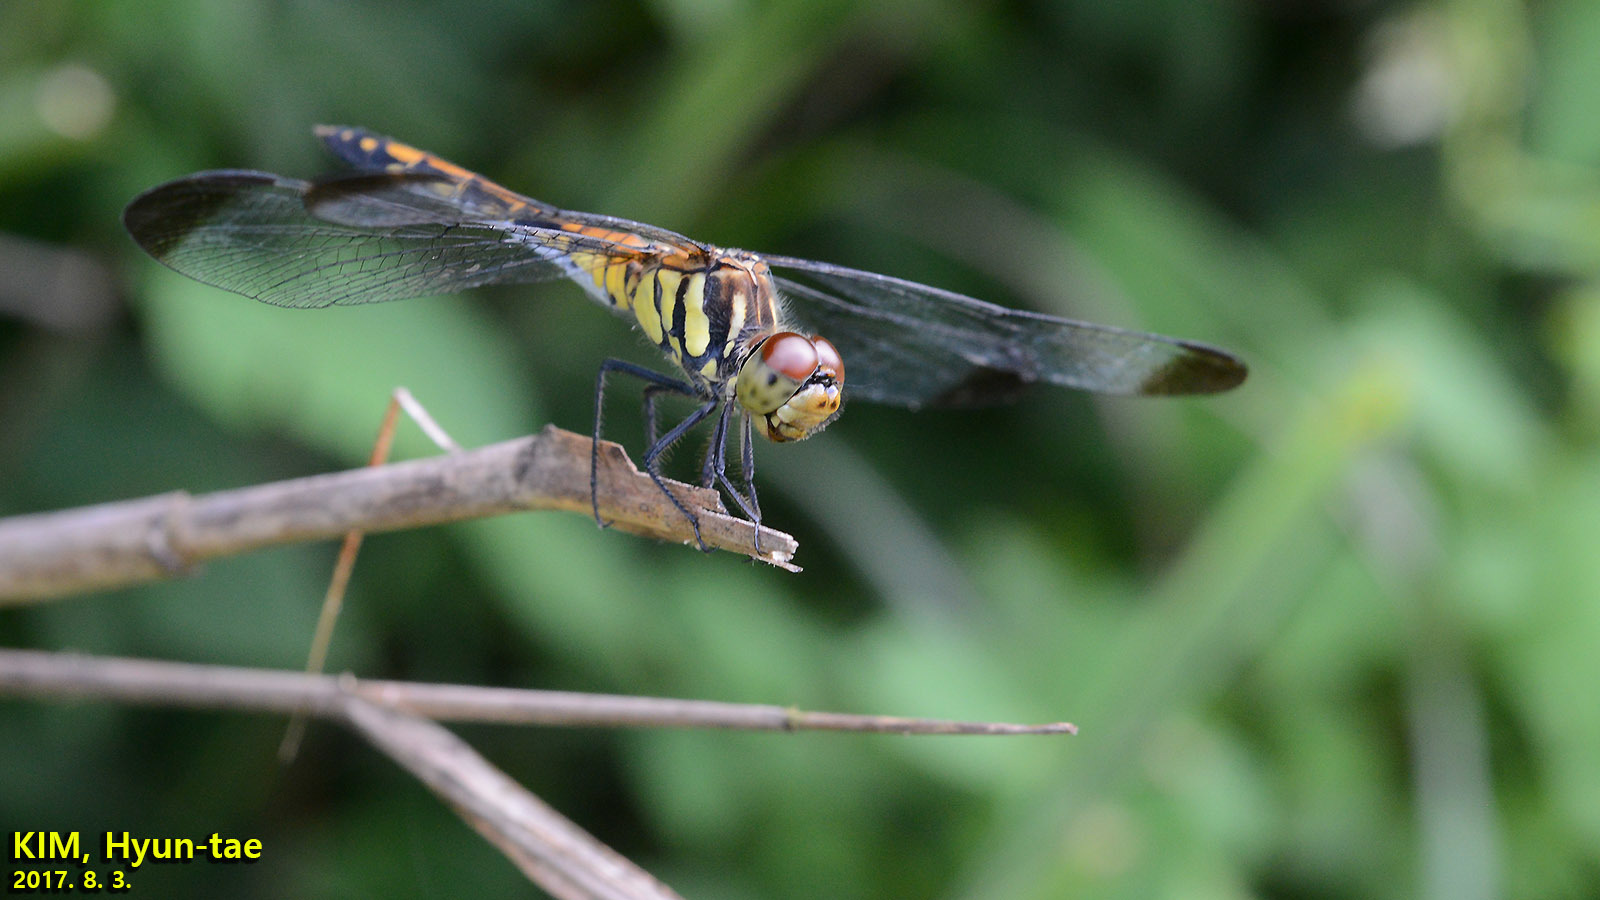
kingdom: Animalia
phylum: Arthropoda
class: Insecta
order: Odonata
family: Libellulidae
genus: Sympetrum
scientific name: Sympetrum infuscatum
